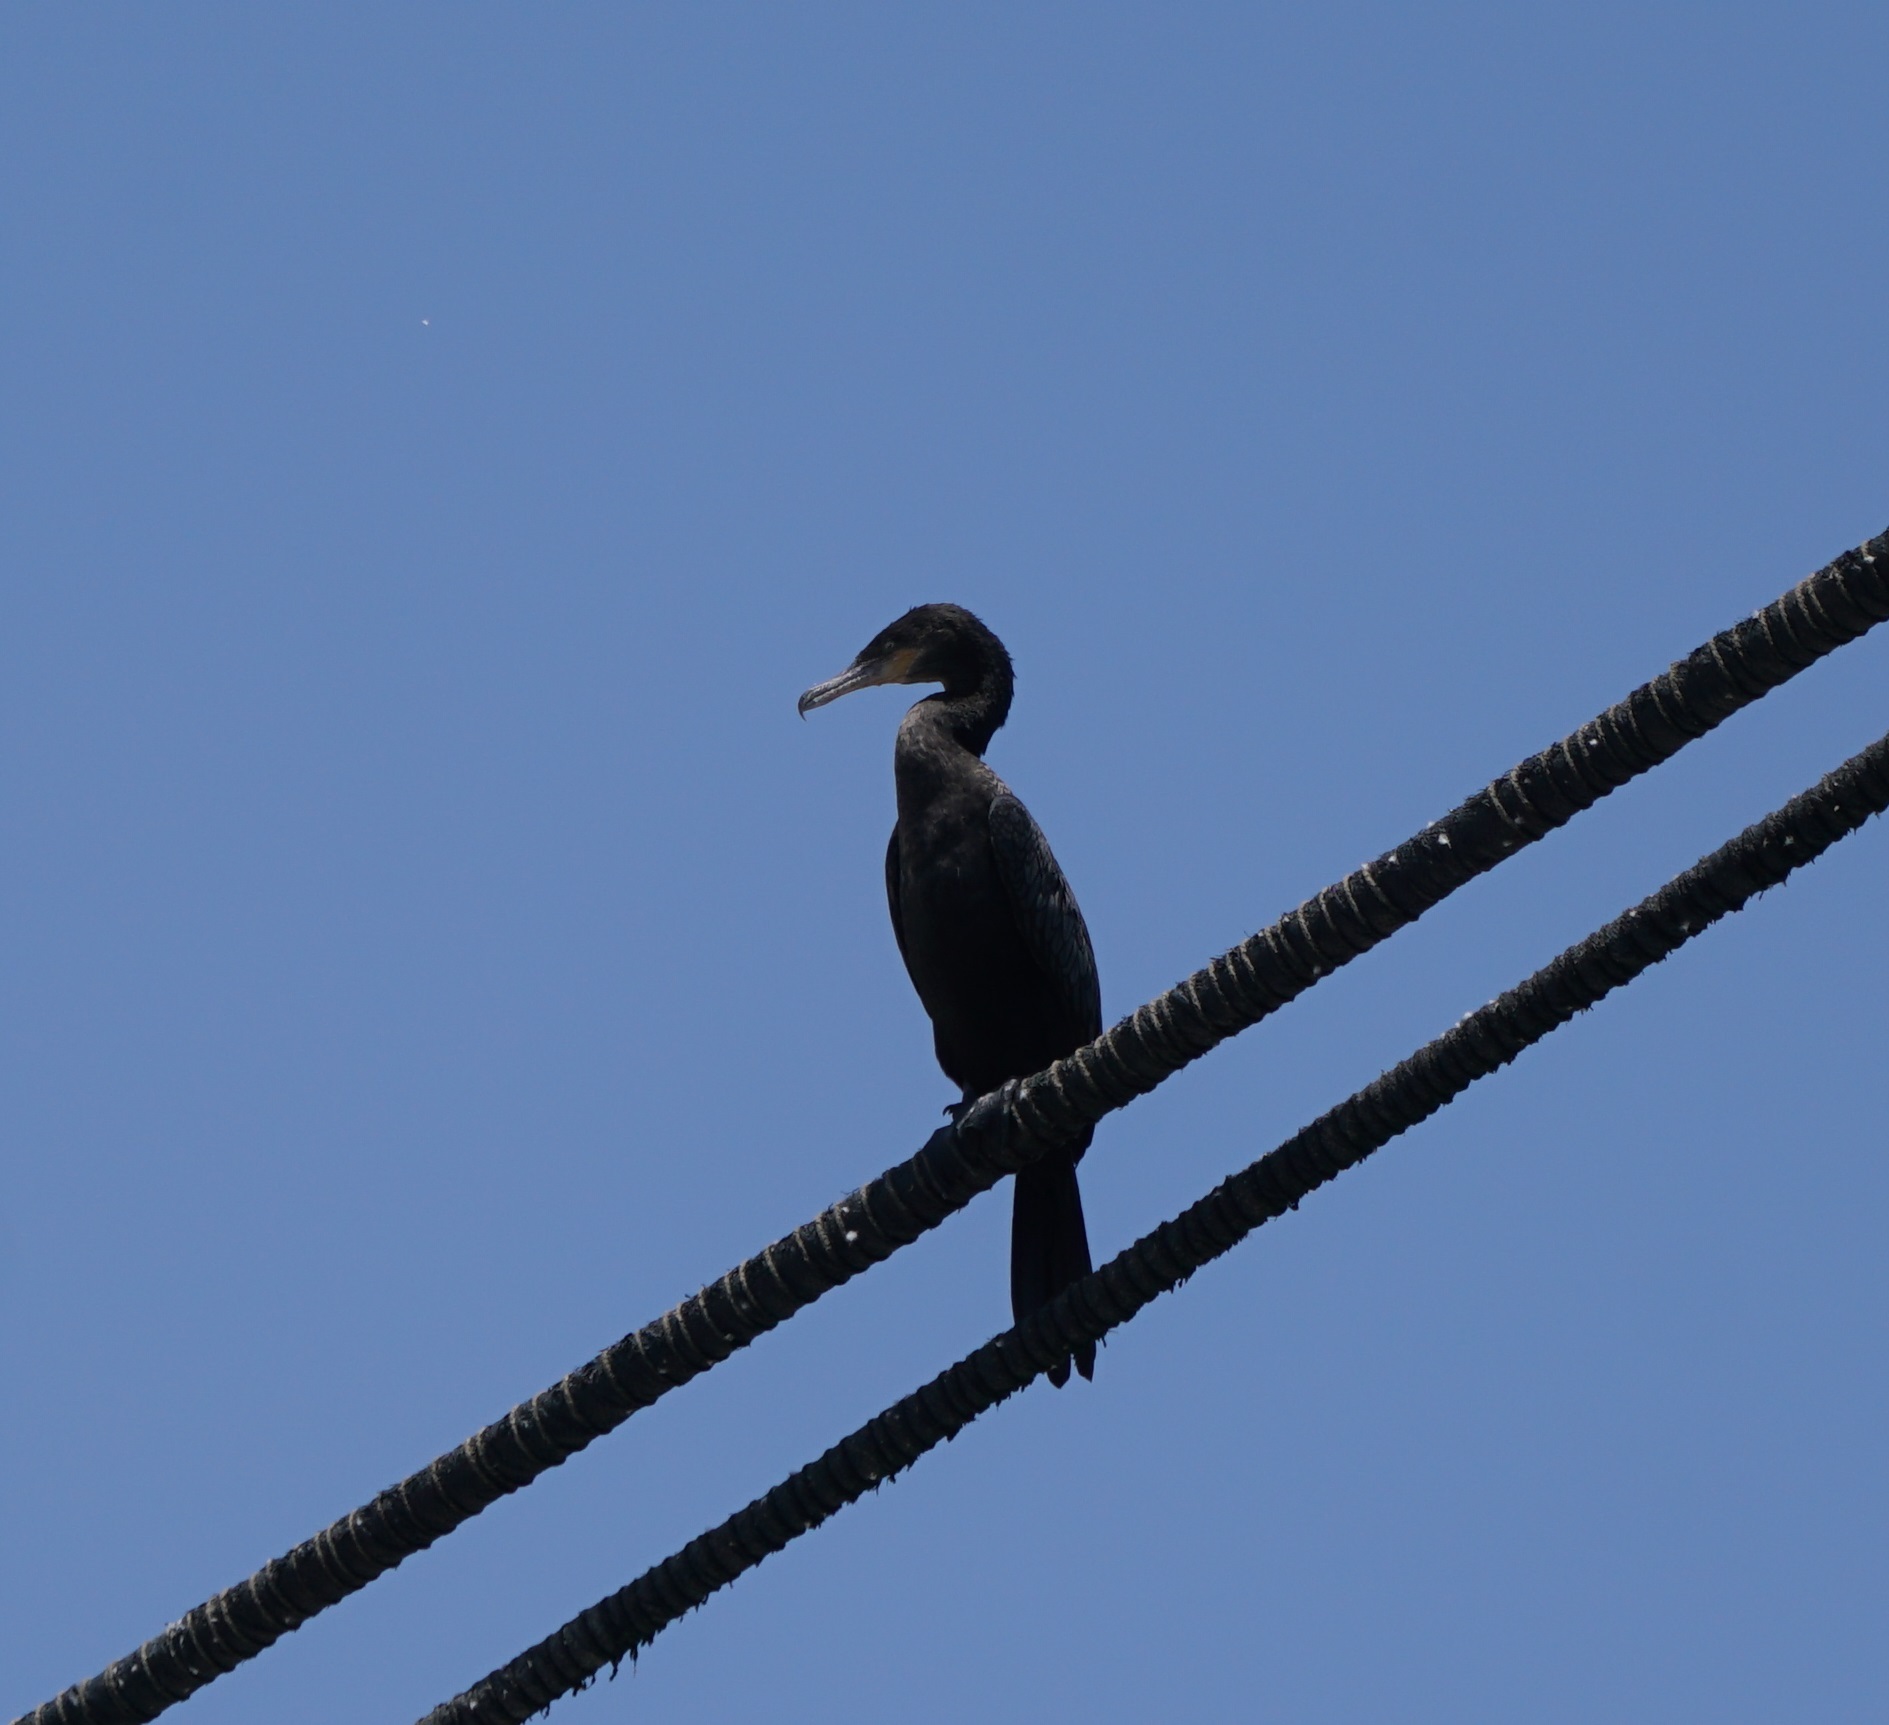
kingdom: Animalia
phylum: Chordata
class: Aves
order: Suliformes
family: Phalacrocoracidae
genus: Phalacrocorax
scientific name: Phalacrocorax brasilianus
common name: Neotropic cormorant
